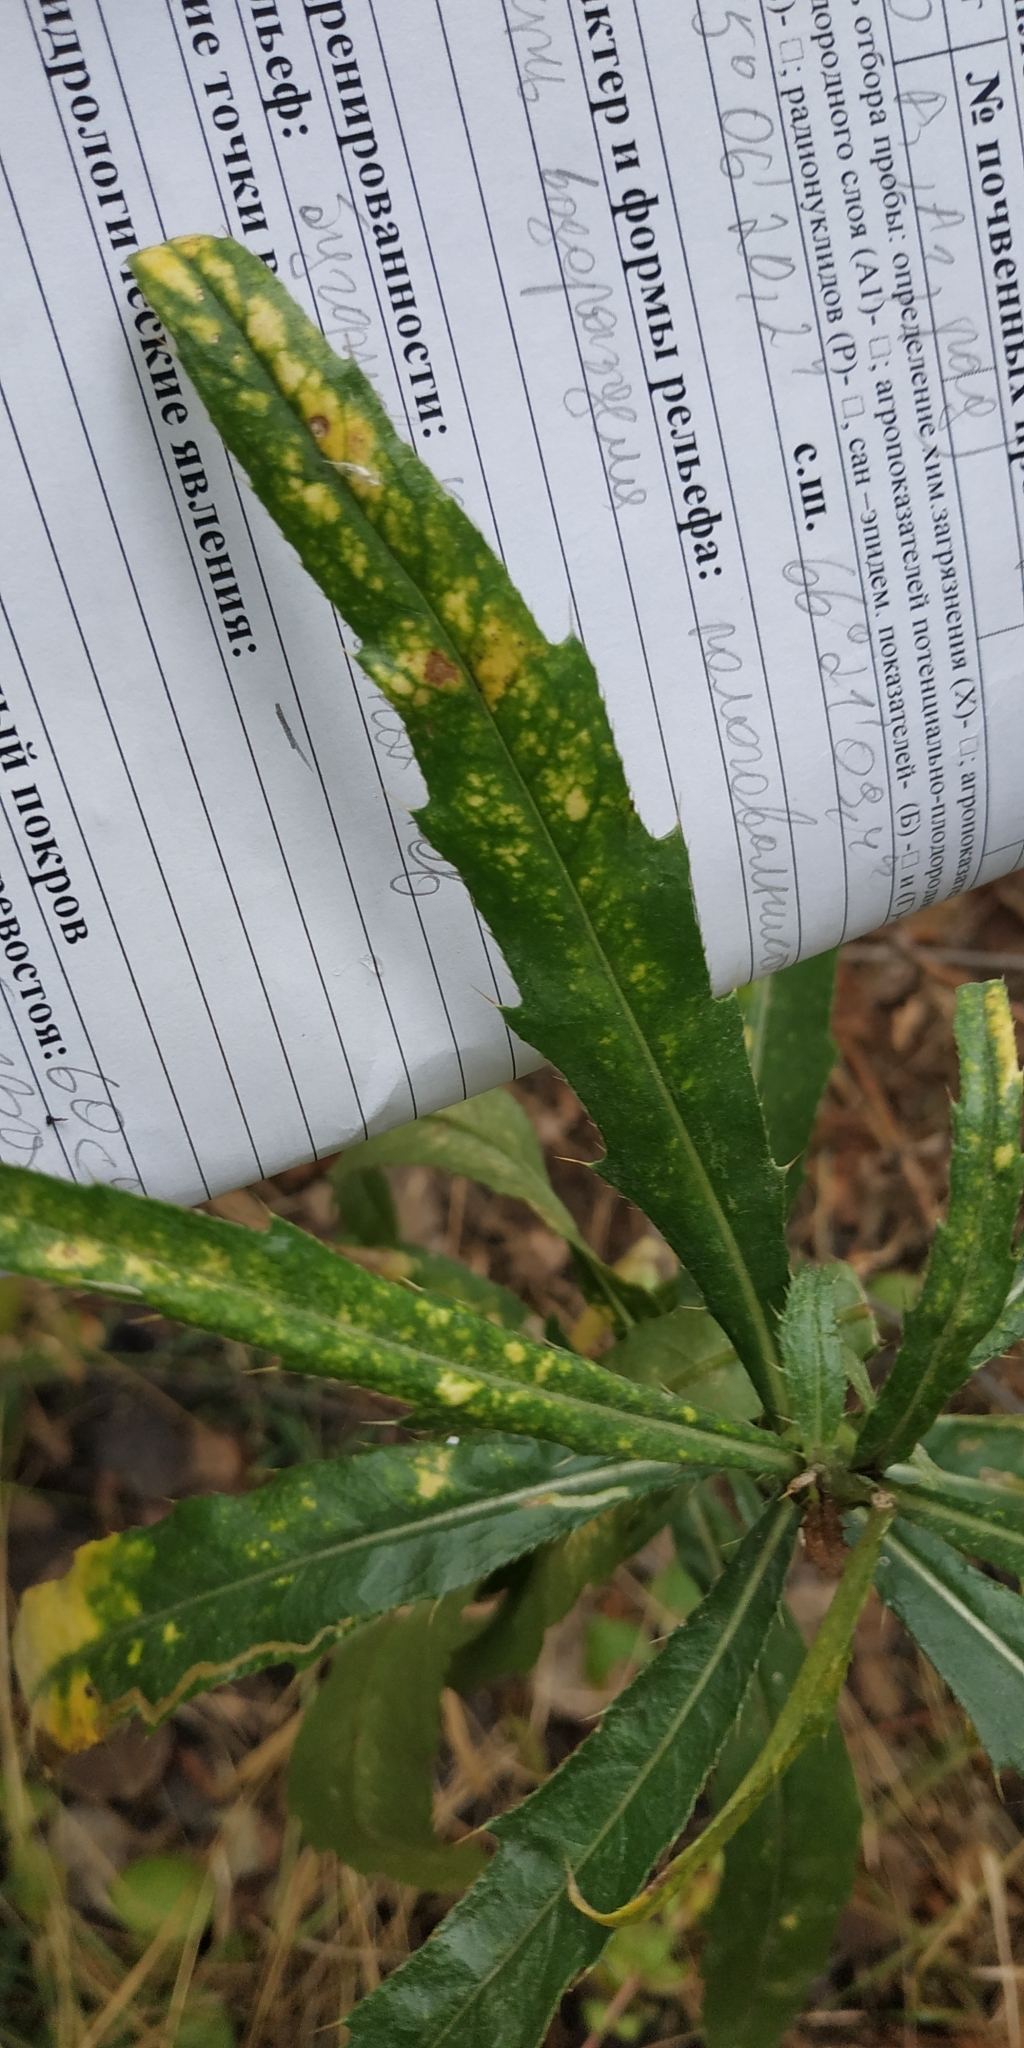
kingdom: Plantae
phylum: Tracheophyta
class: Magnoliopsida
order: Asterales
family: Asteraceae
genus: Cirsium
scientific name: Cirsium arvense
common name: Creeping thistle
